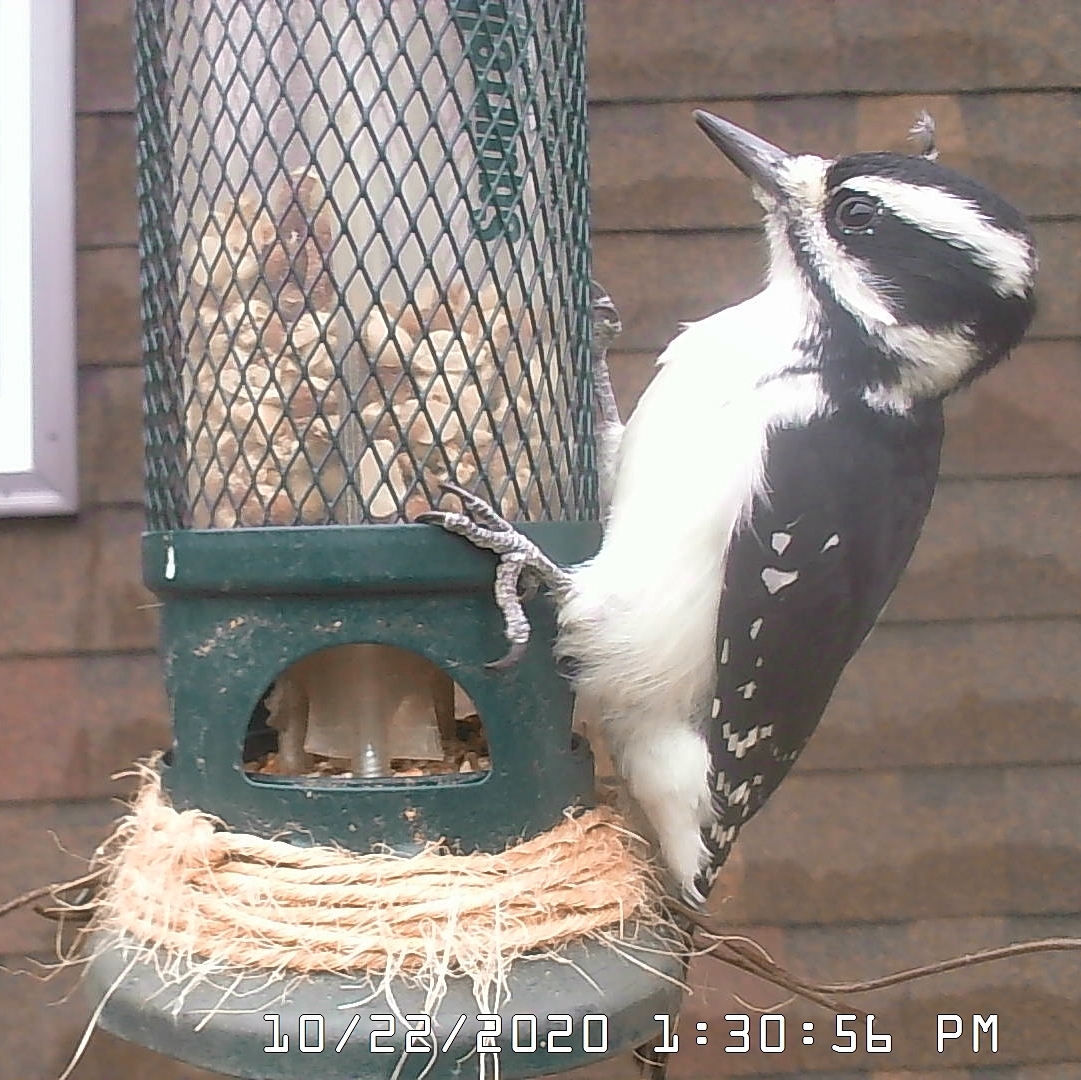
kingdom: Animalia
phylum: Chordata
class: Aves
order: Piciformes
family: Picidae
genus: Leuconotopicus
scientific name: Leuconotopicus villosus
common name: Hairy woodpecker
